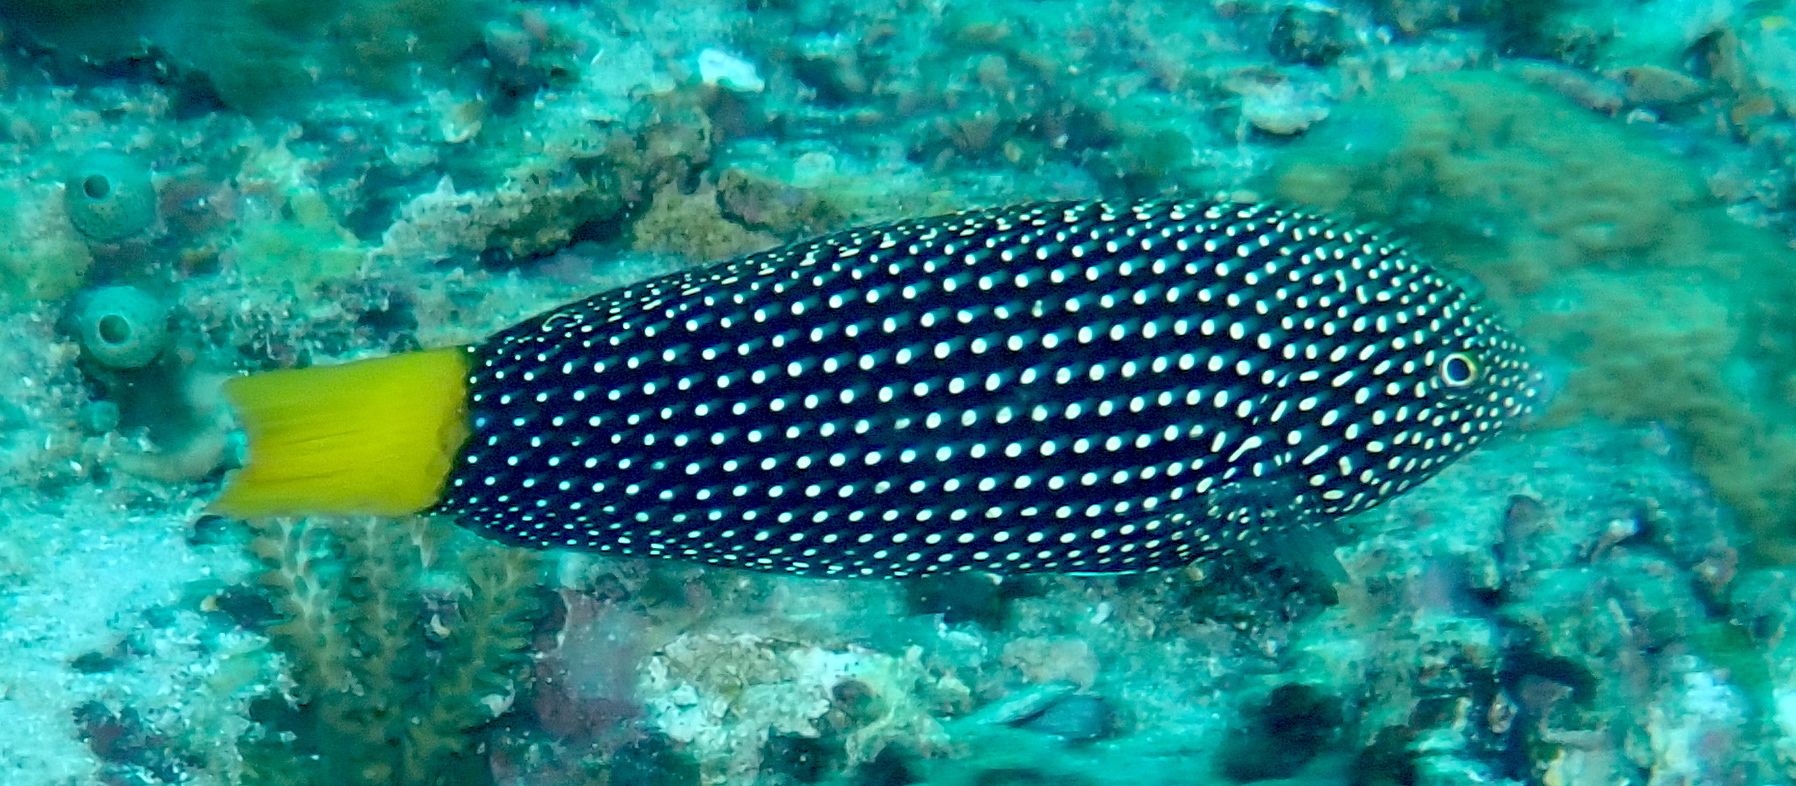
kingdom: Animalia
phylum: Chordata
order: Perciformes
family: Labridae
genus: Anampses
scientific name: Anampses meleagrides
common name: Yellowtail wrasse
